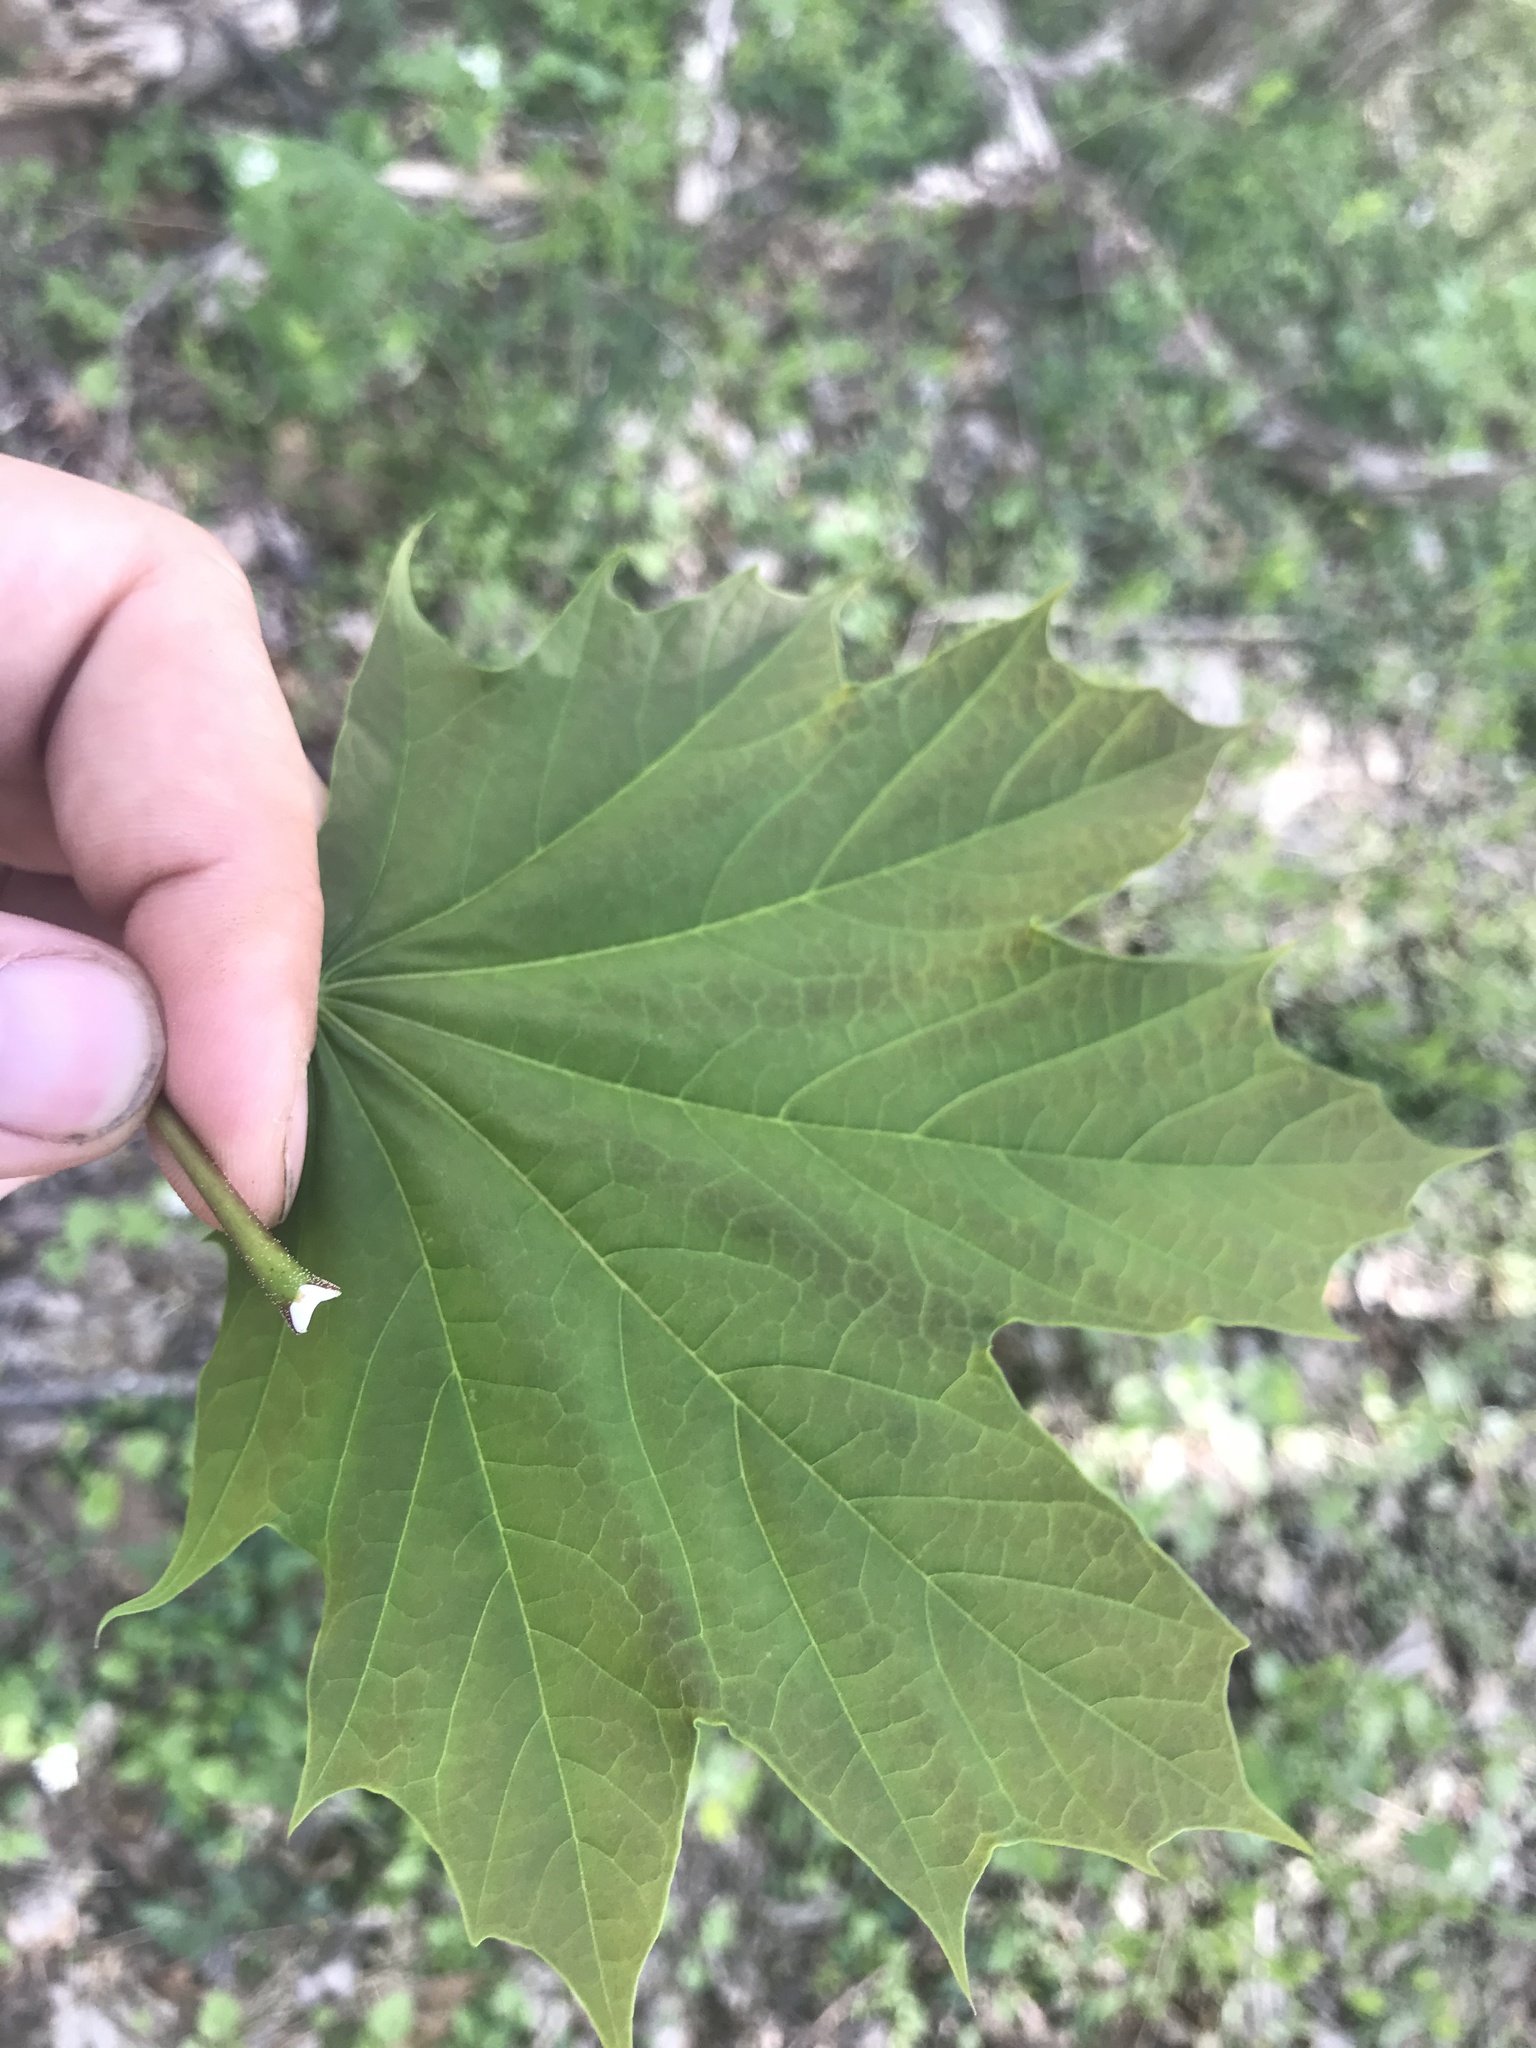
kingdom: Plantae
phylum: Tracheophyta
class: Magnoliopsida
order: Sapindales
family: Sapindaceae
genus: Acer
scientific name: Acer platanoides
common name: Norway maple
